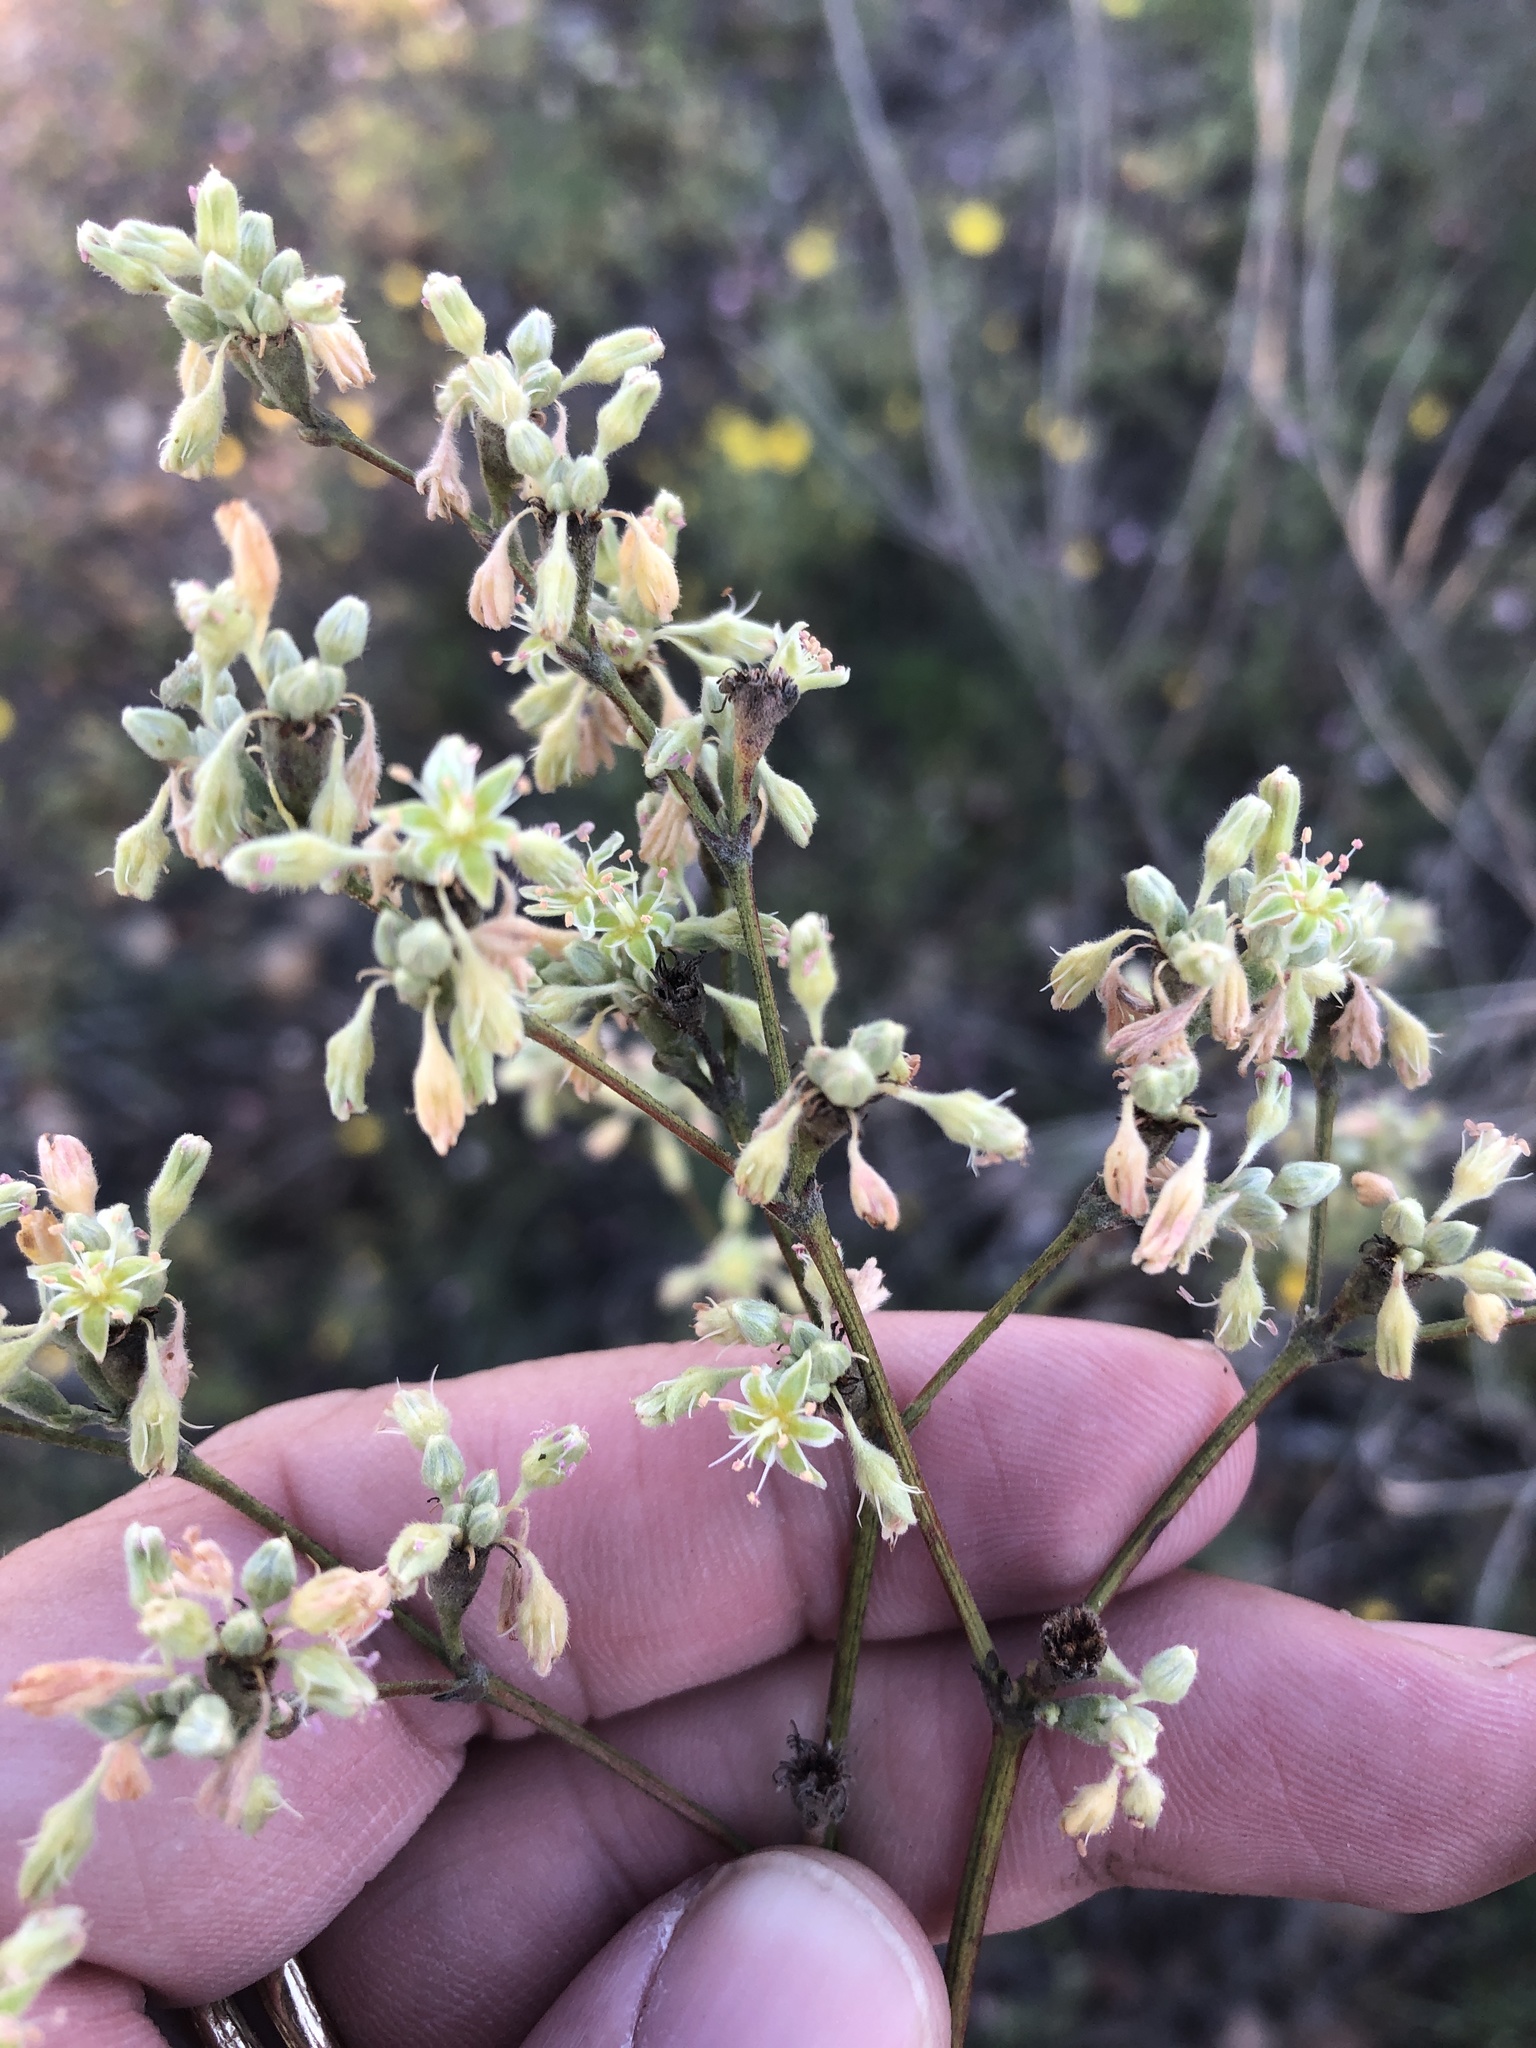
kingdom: Plantae
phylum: Tracheophyta
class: Magnoliopsida
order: Caryophyllales
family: Polygonaceae
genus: Eriogonum
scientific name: Eriogonum longifolium
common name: Longleaf wild buckwheat
